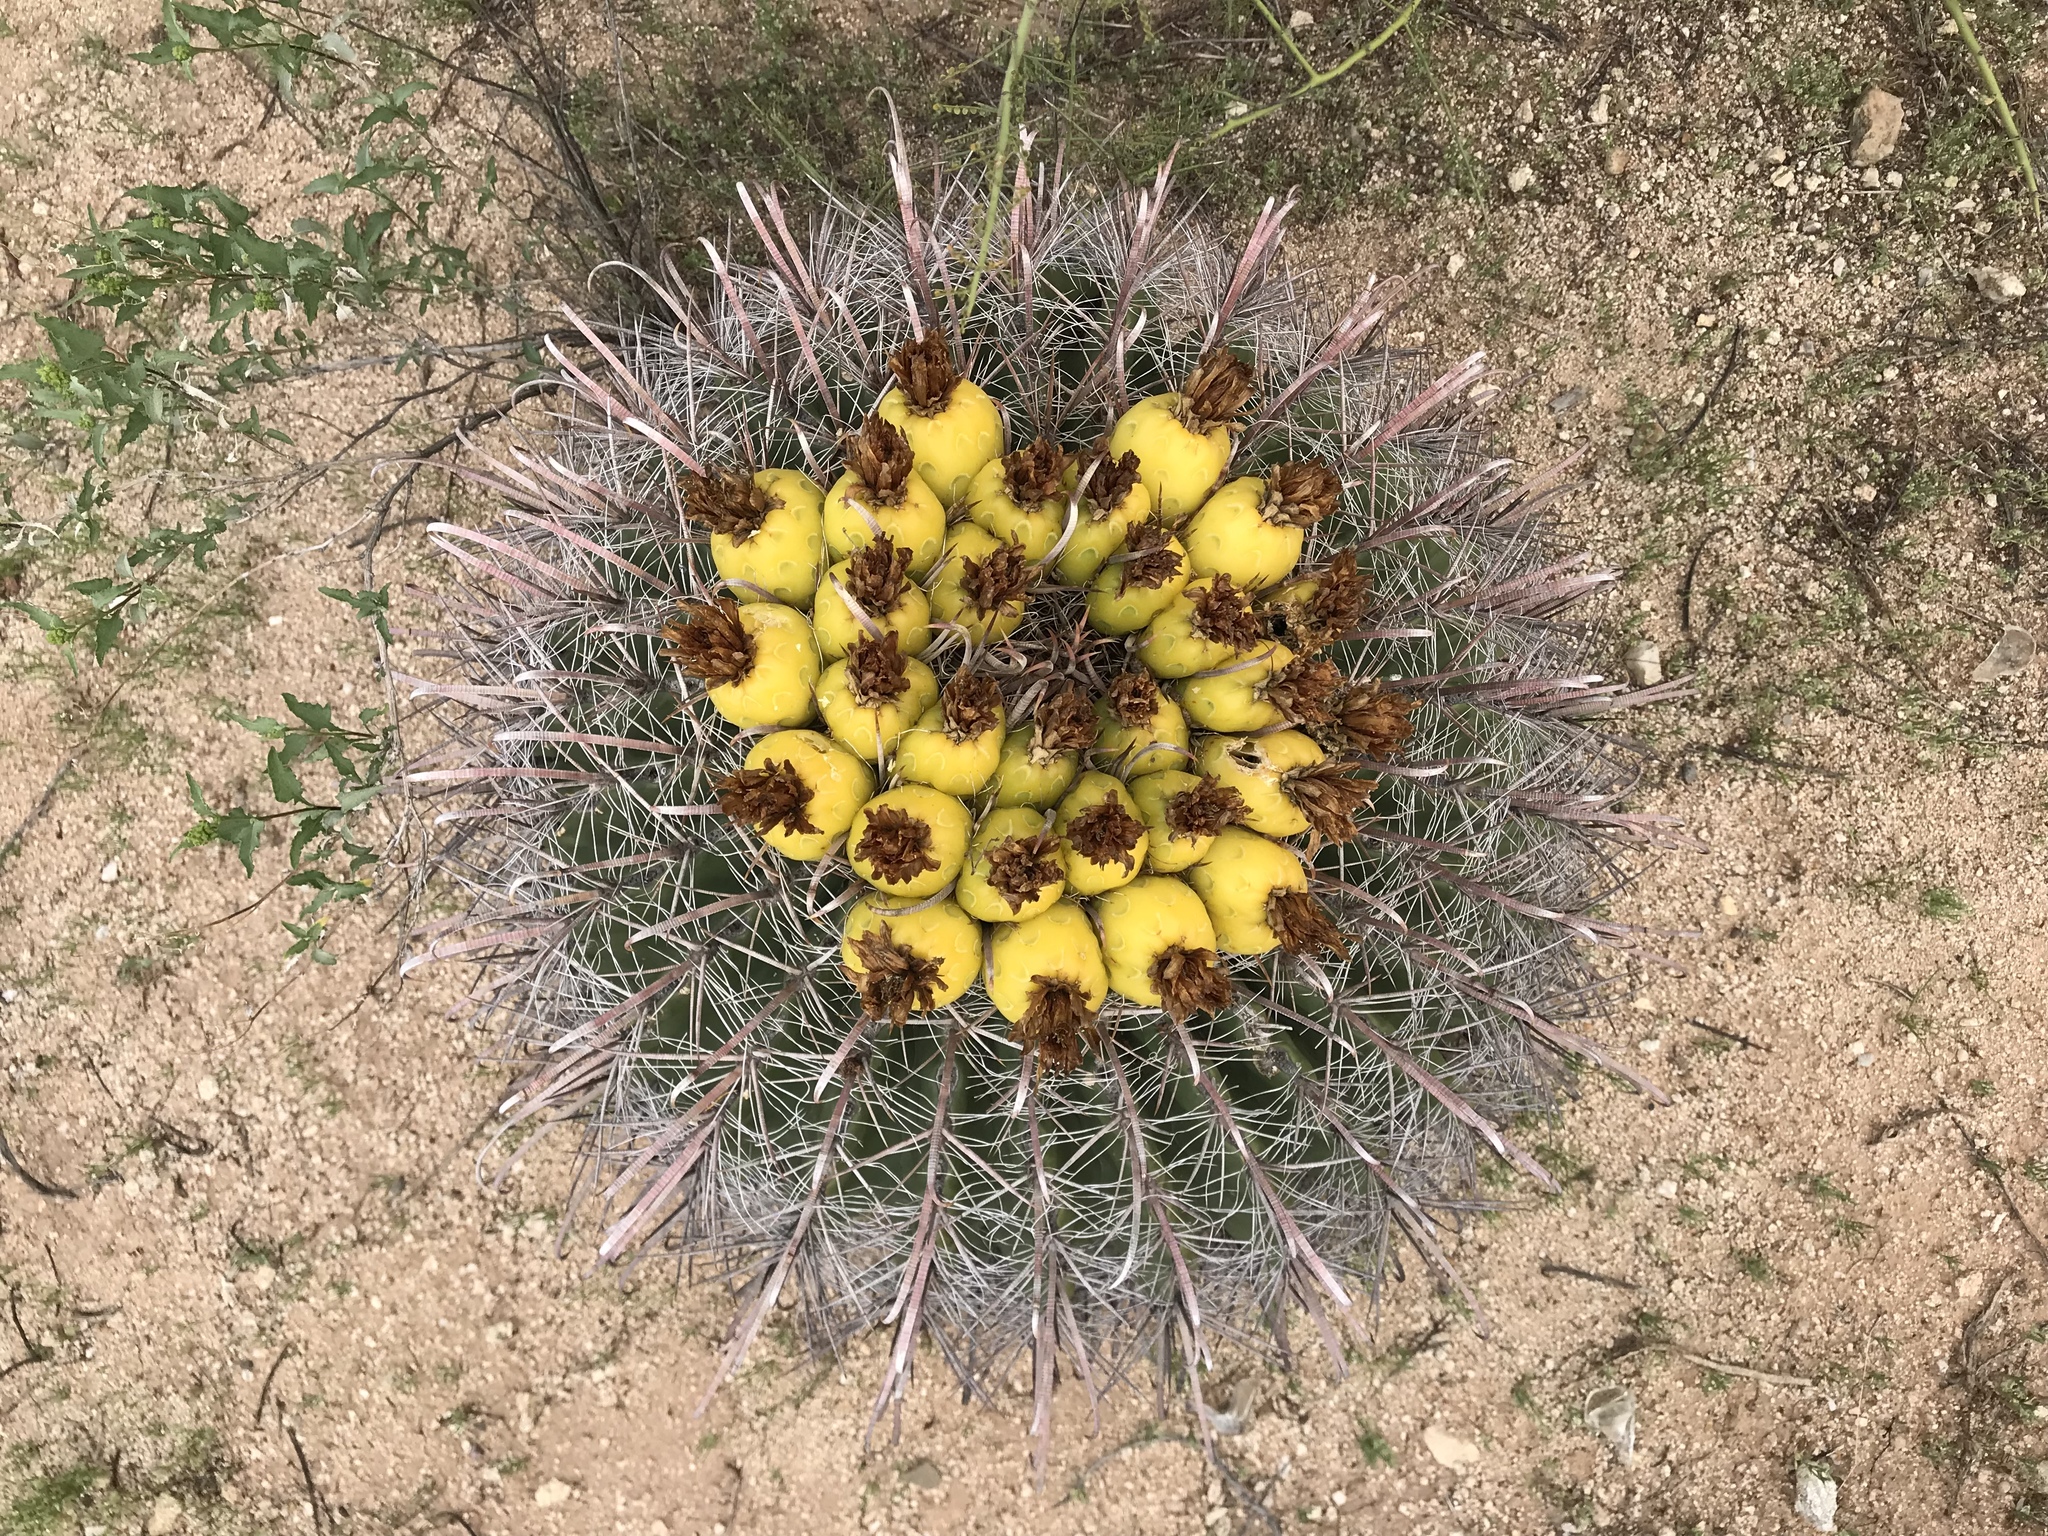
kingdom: Plantae
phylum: Tracheophyta
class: Magnoliopsida
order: Caryophyllales
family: Cactaceae
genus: Ferocactus
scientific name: Ferocactus wislizeni
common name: Candy barrel cactus
